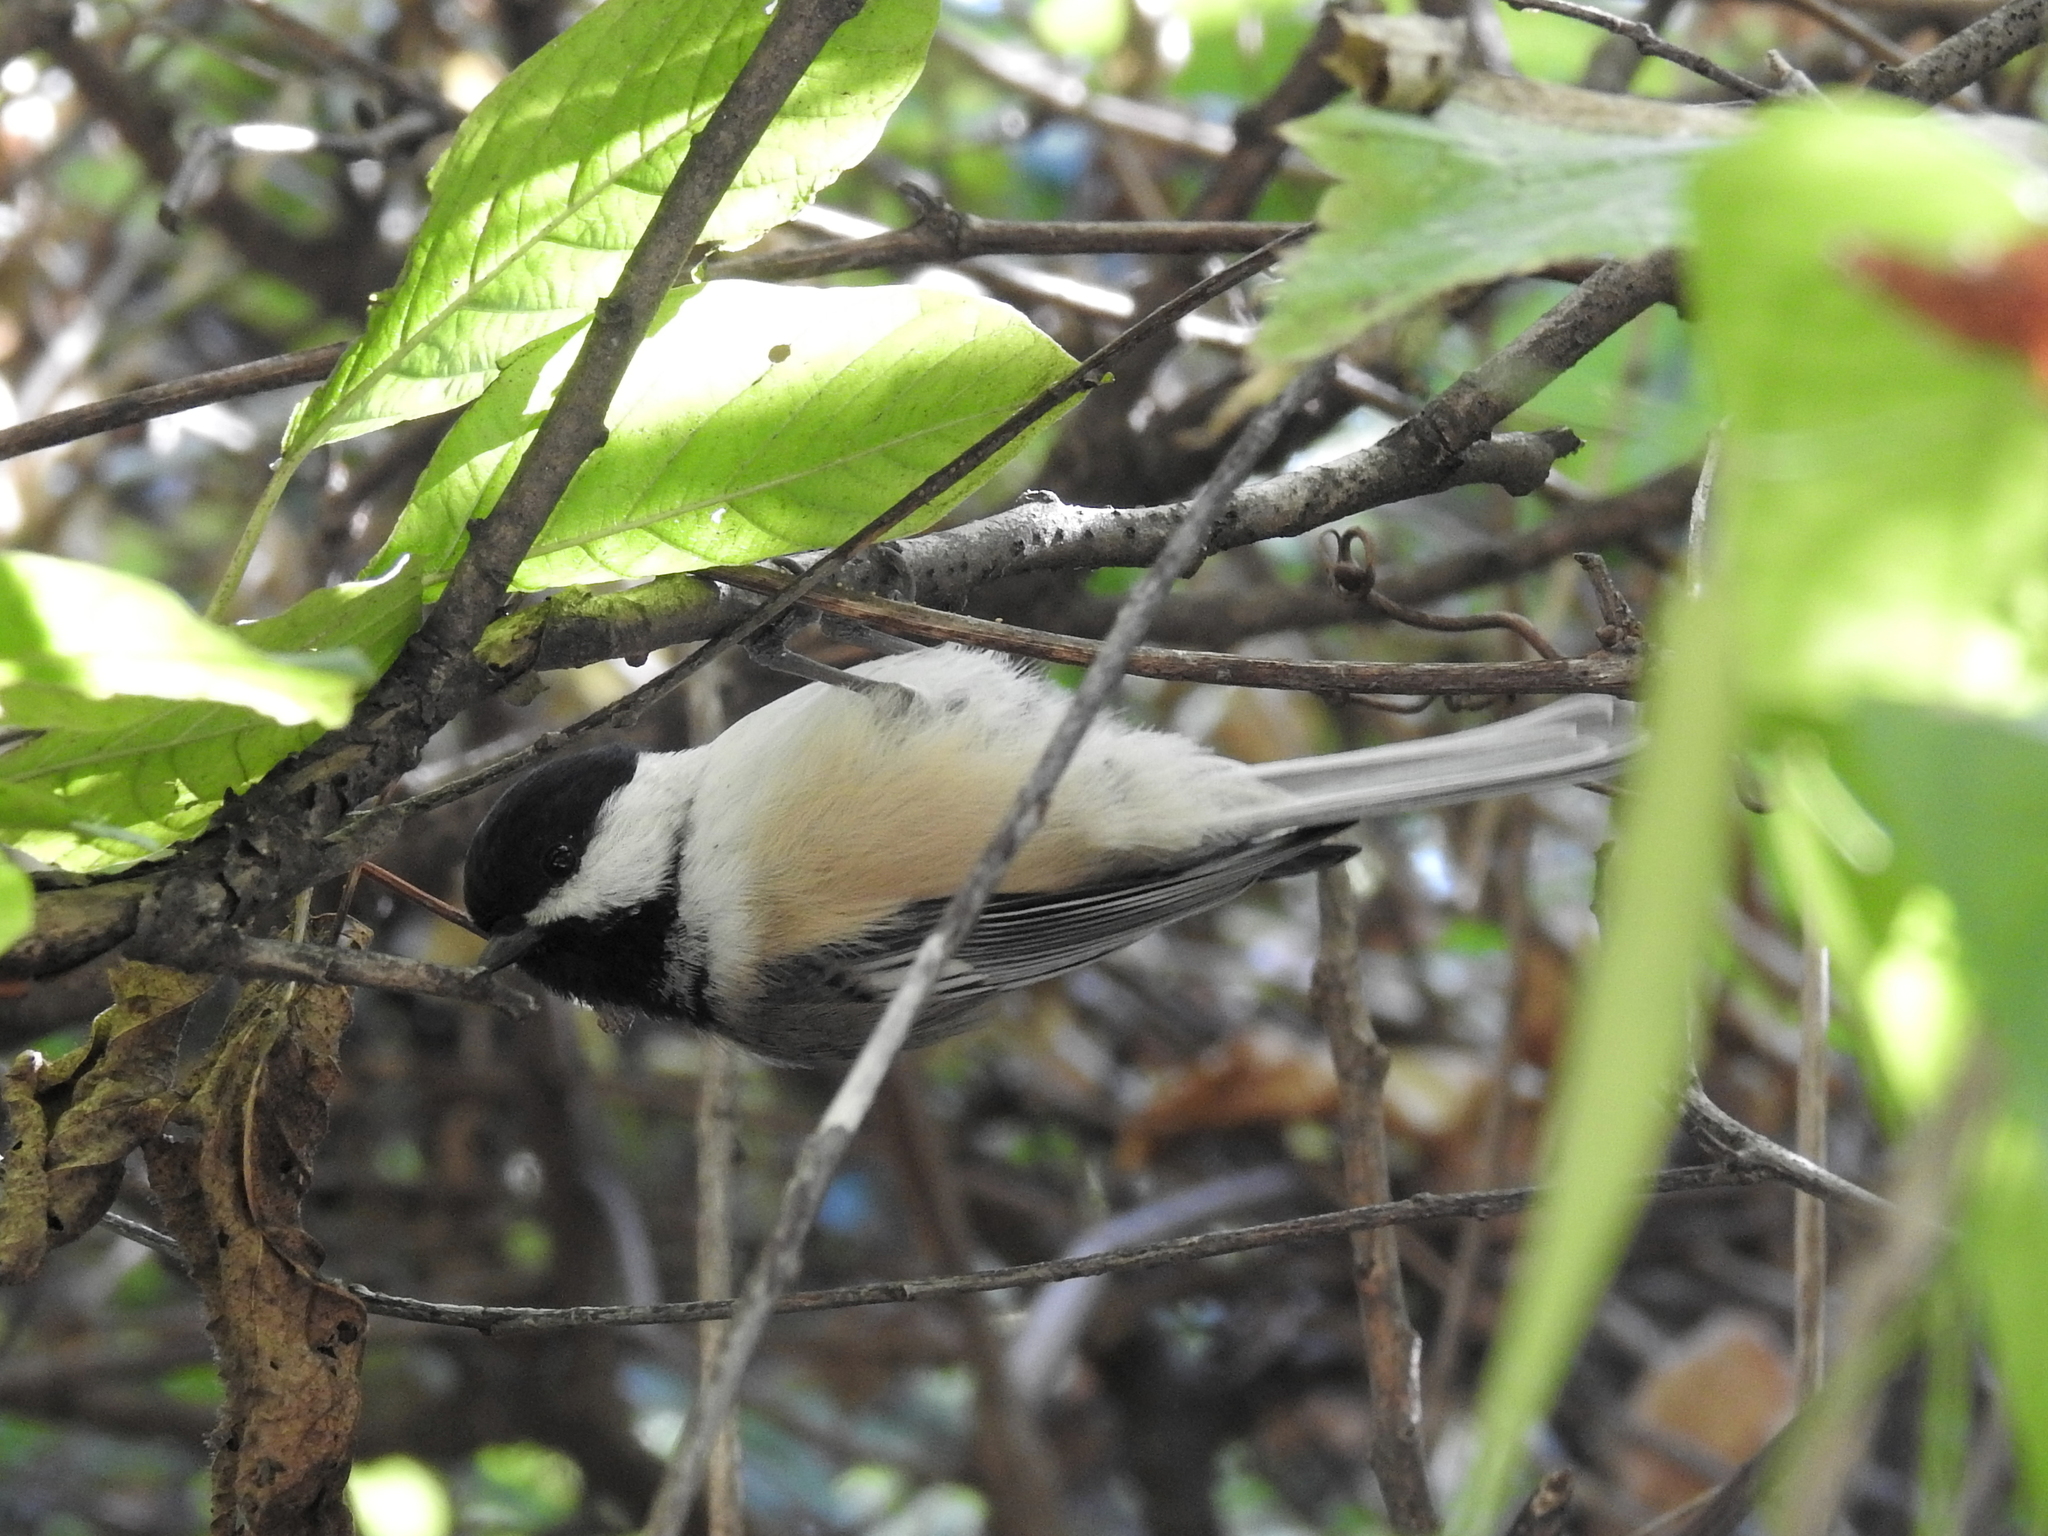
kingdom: Animalia
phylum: Chordata
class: Aves
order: Passeriformes
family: Paridae
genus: Poecile
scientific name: Poecile atricapillus
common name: Black-capped chickadee
